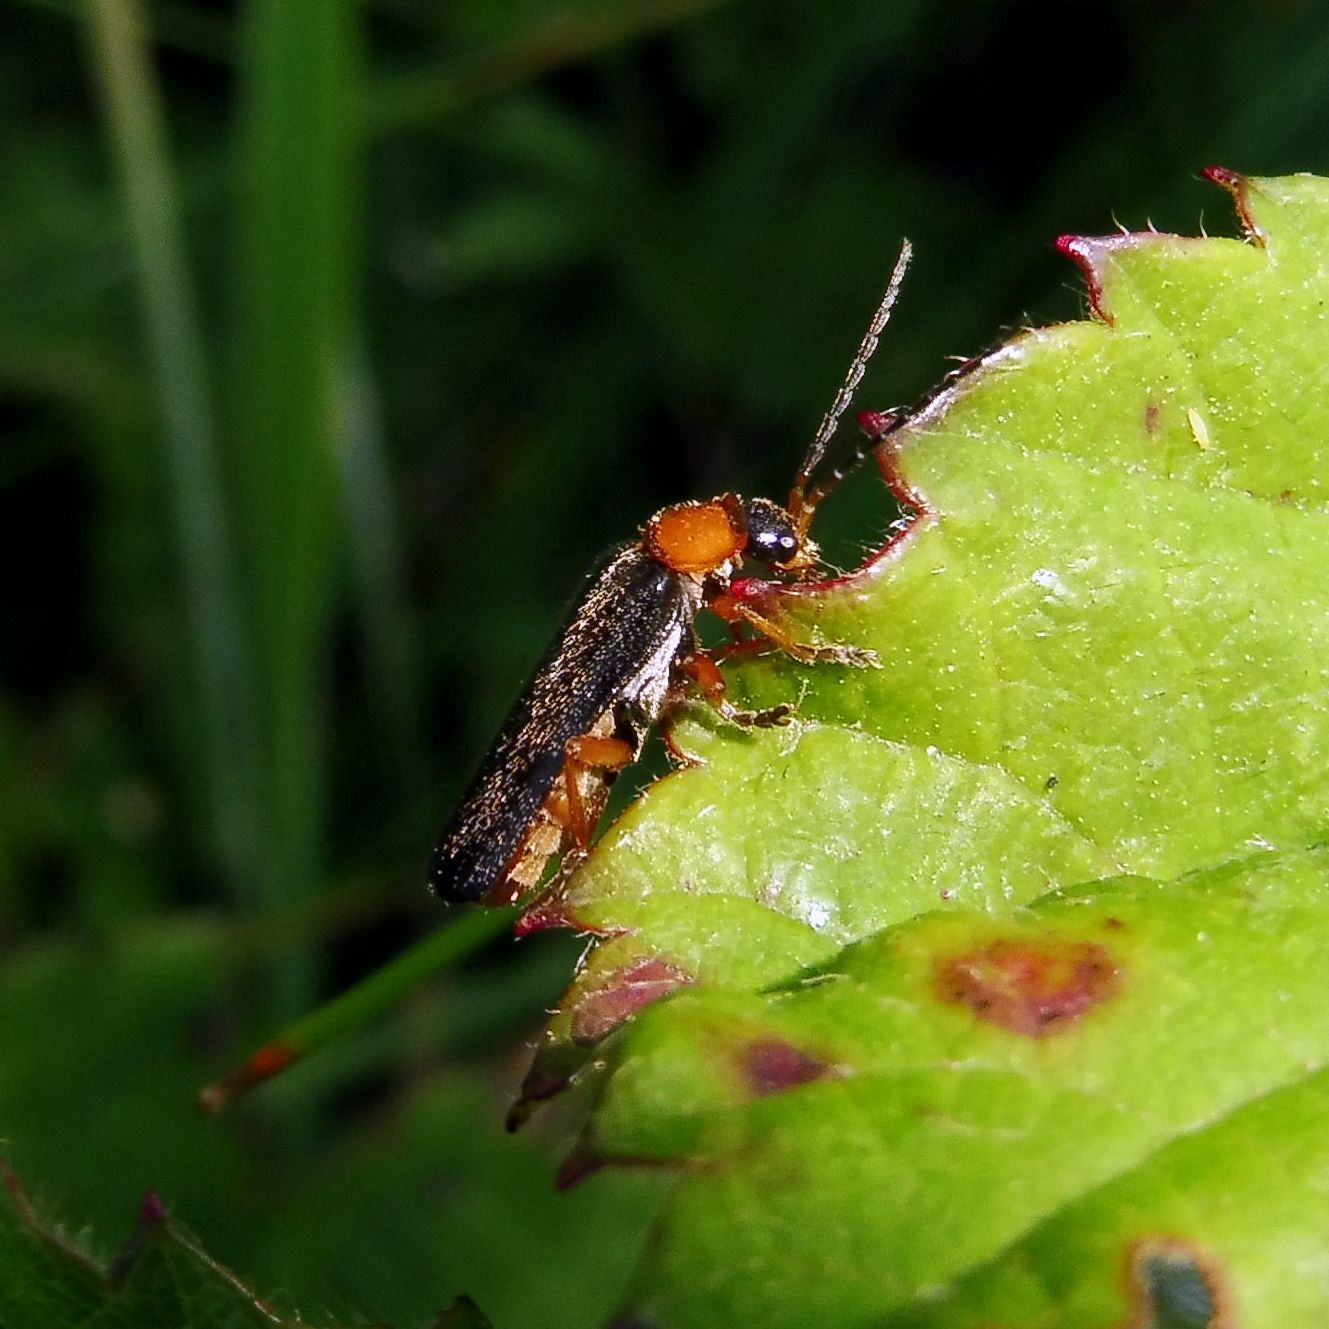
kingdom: Animalia
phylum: Arthropoda
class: Insecta
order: Coleoptera
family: Cantharidae
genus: Cantharis
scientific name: Cantharis flavilabris
